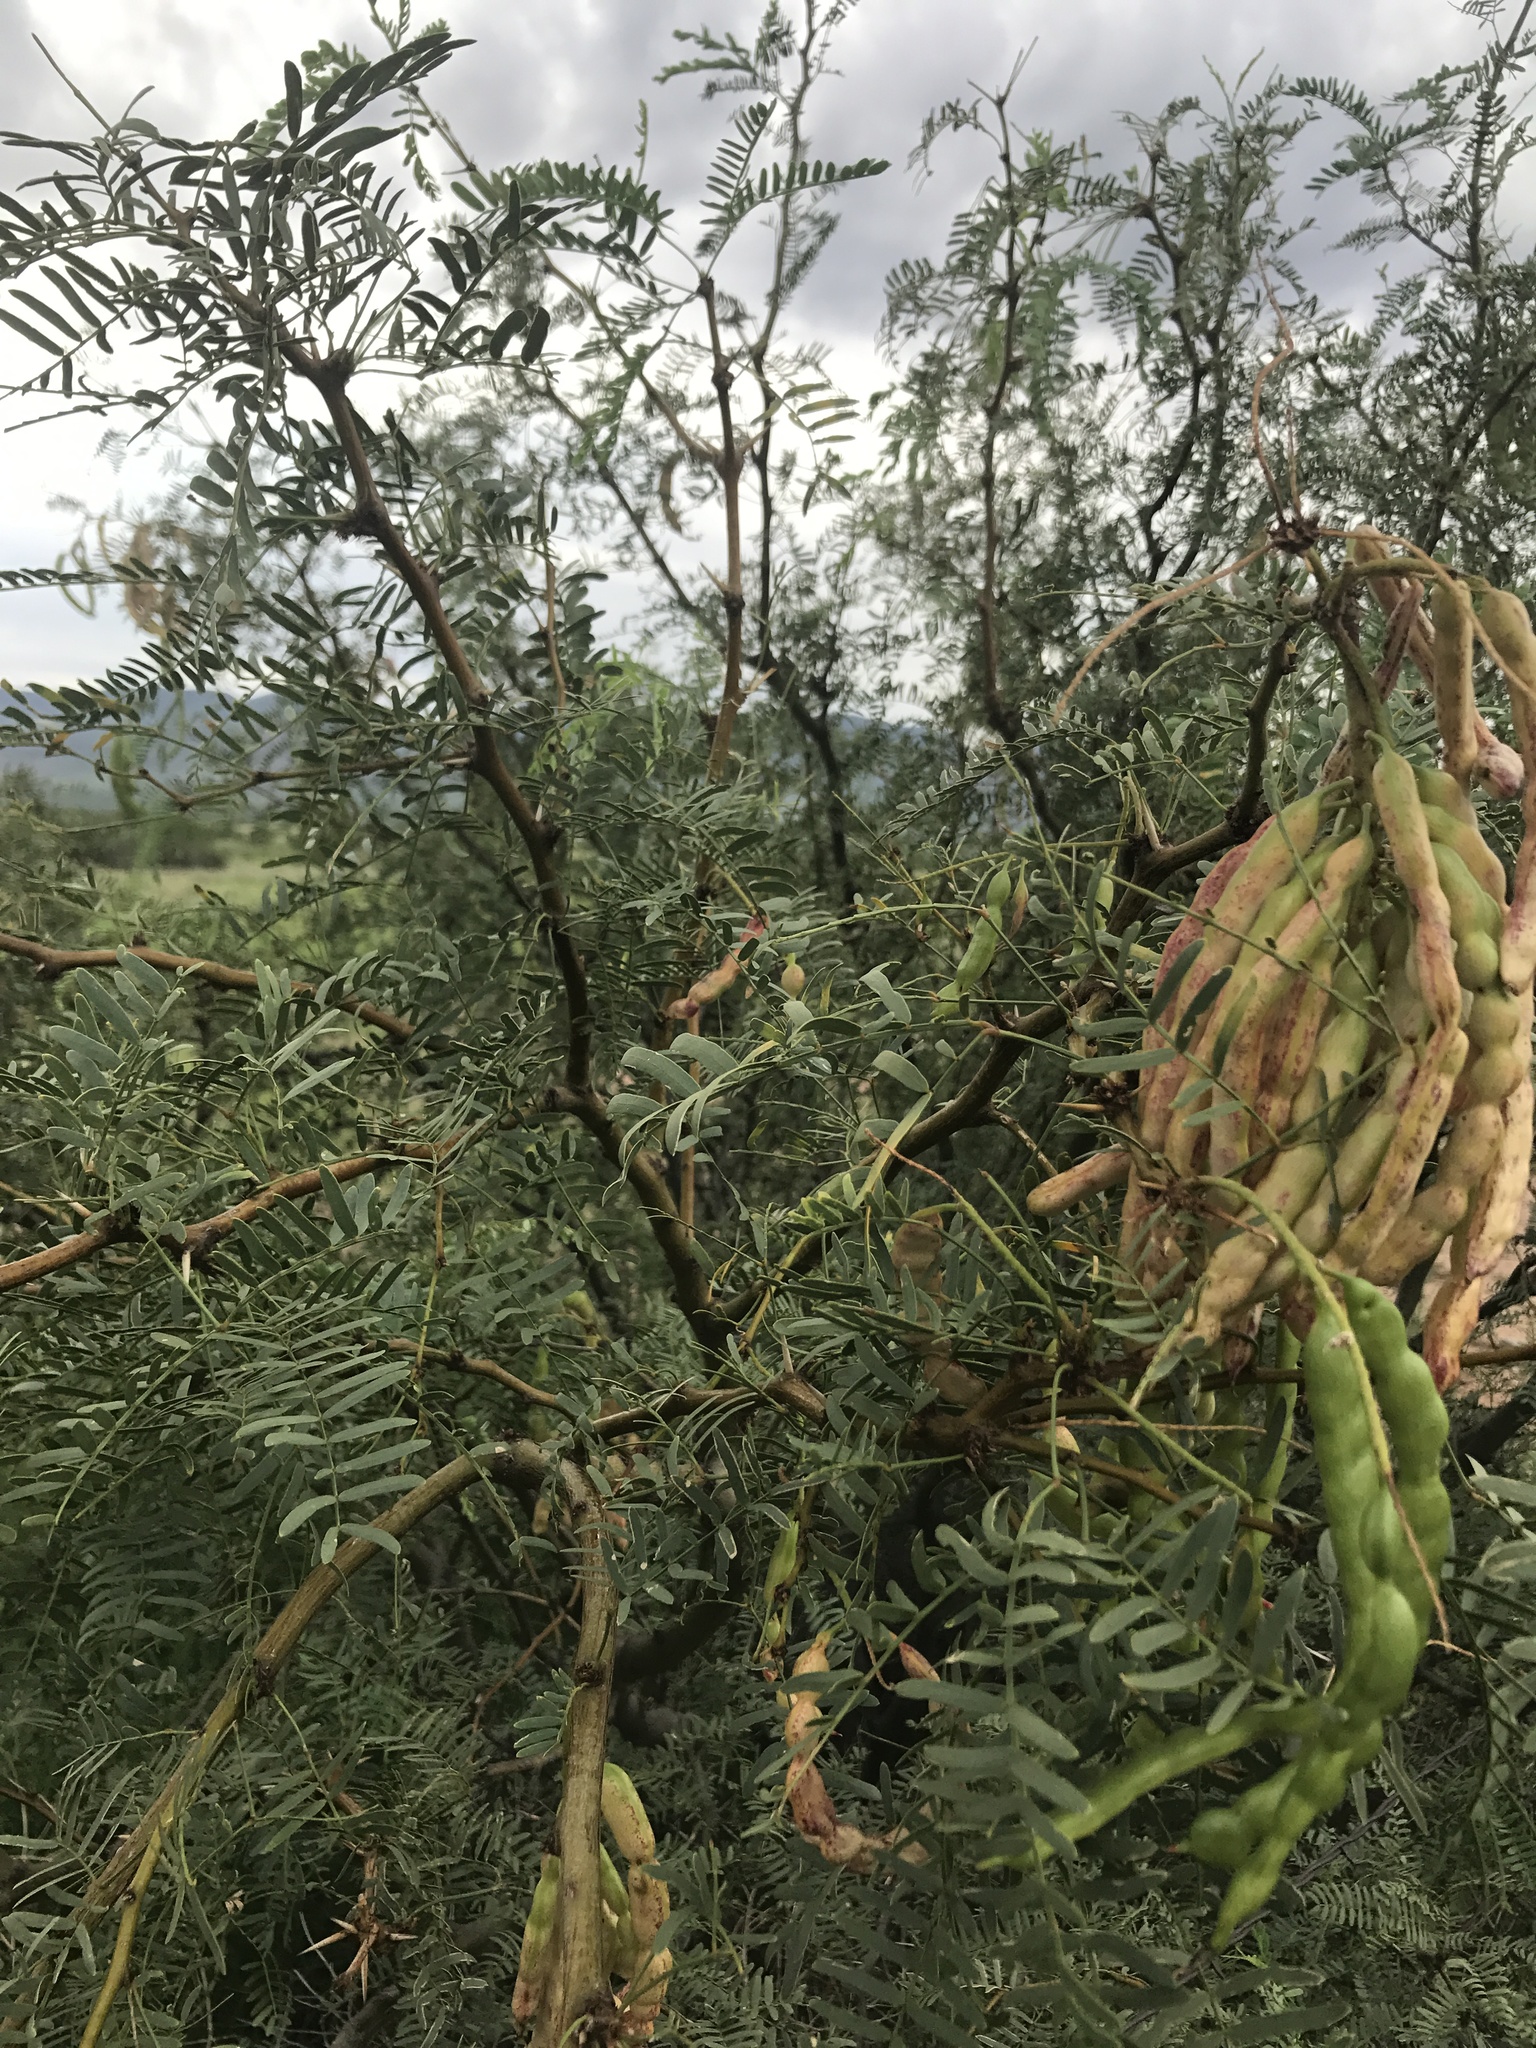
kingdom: Plantae
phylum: Tracheophyta
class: Magnoliopsida
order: Fabales
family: Fabaceae
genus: Prosopis
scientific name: Prosopis glandulosa
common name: Honey mesquite
